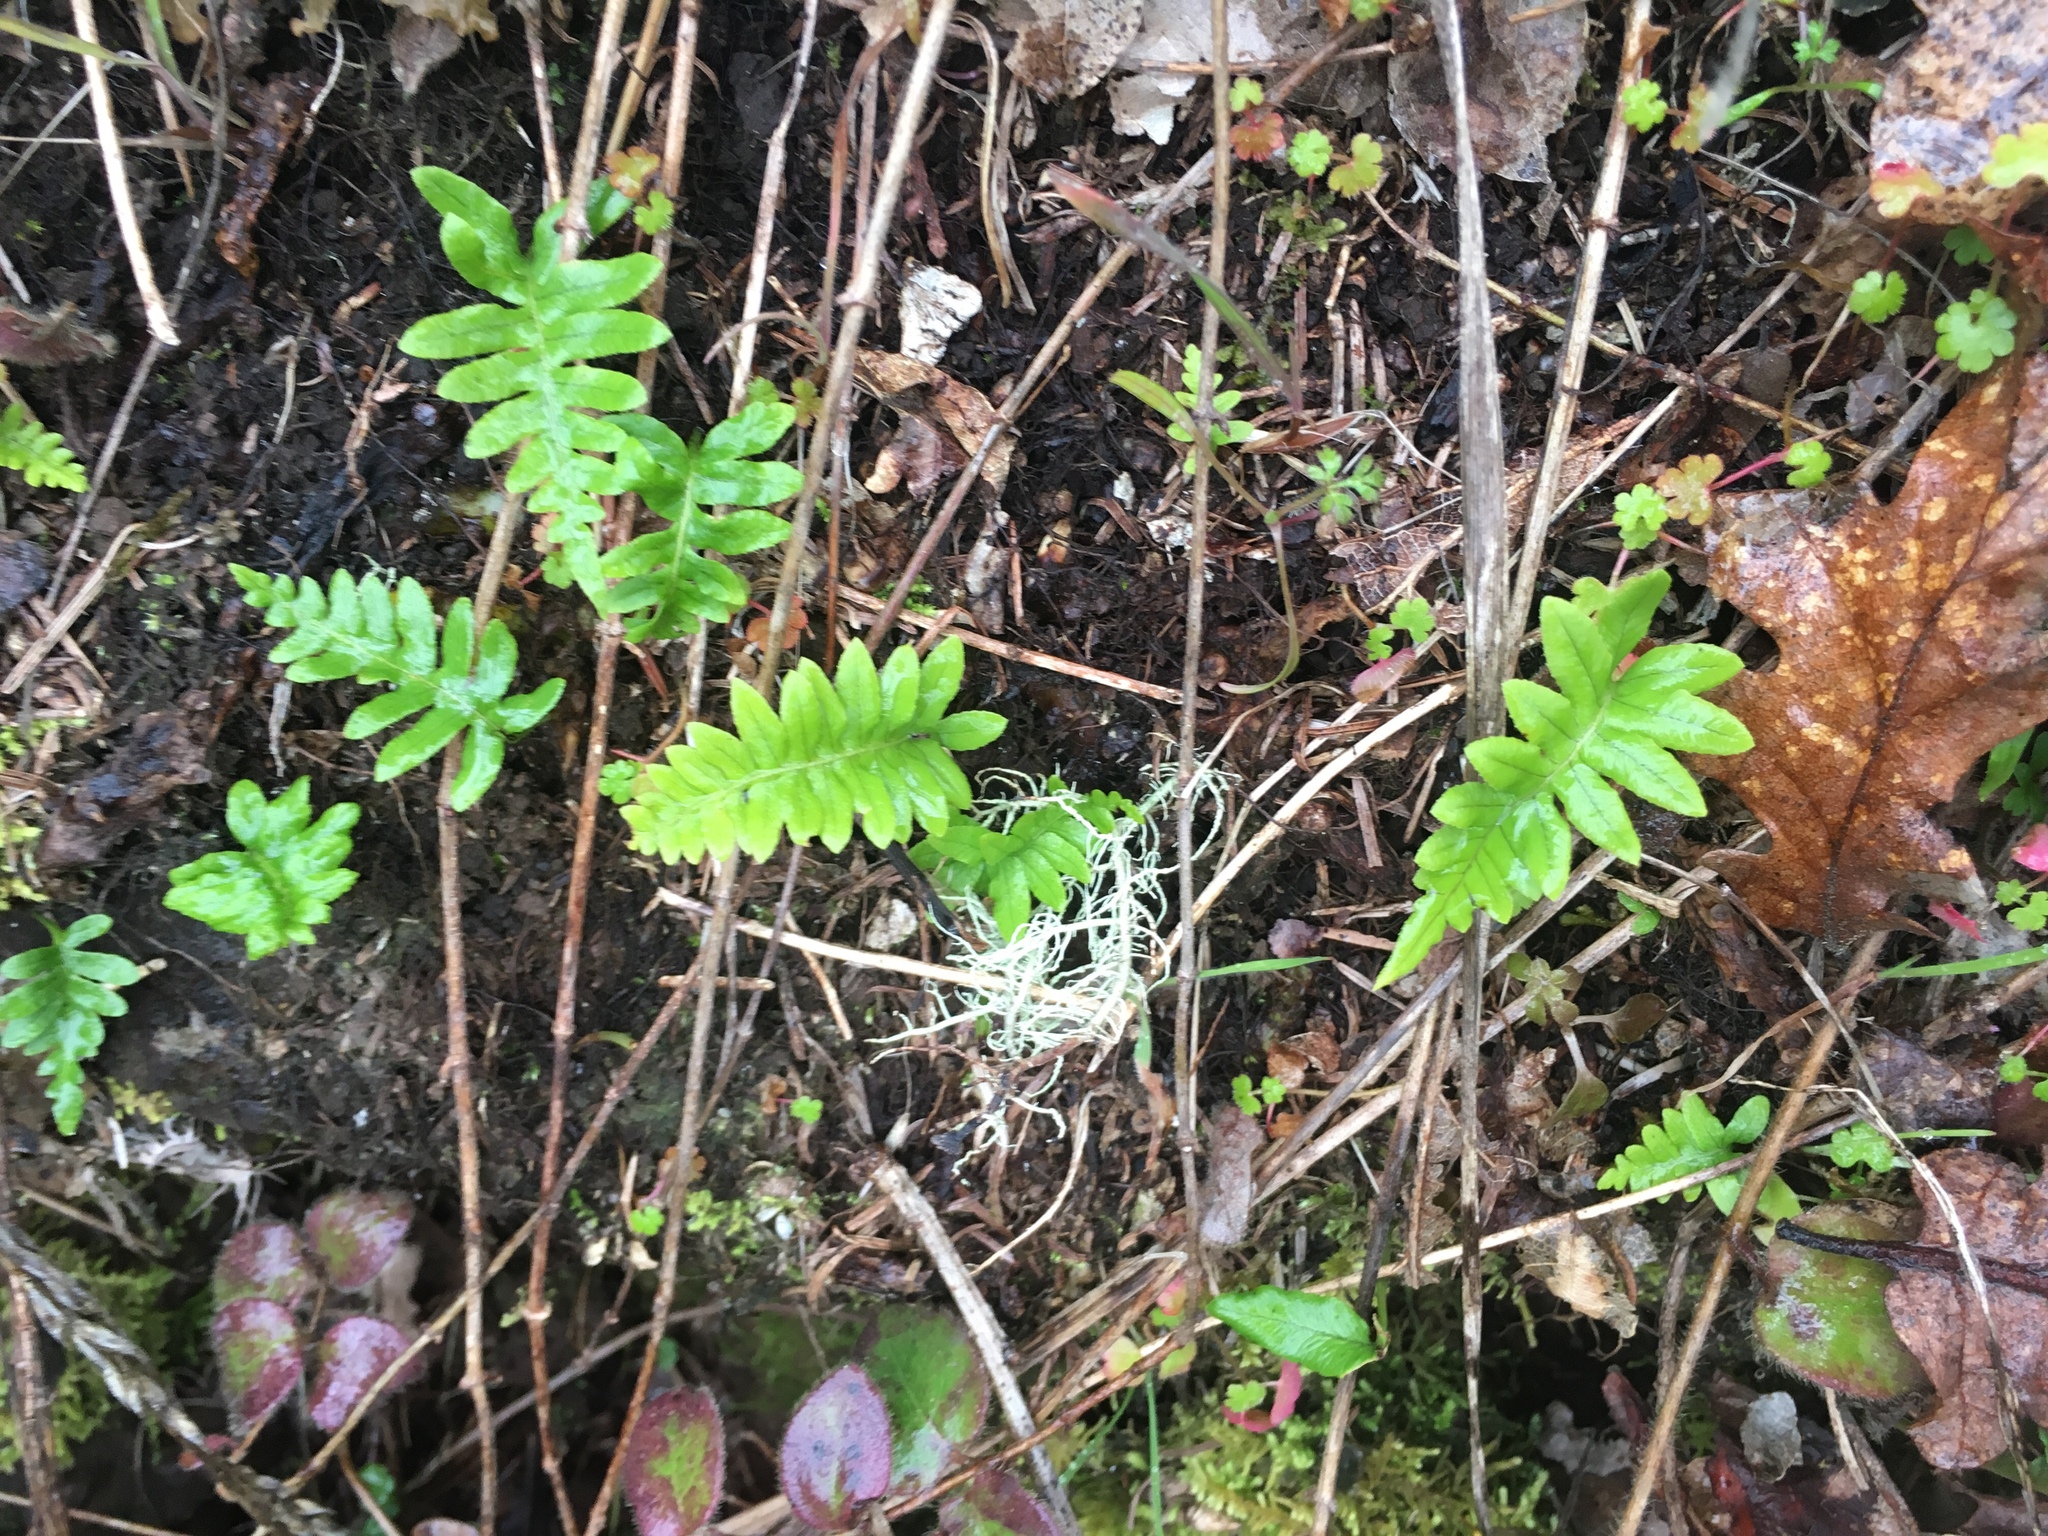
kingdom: Plantae
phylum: Tracheophyta
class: Polypodiopsida
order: Polypodiales
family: Polypodiaceae
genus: Polypodium
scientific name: Polypodium glycyrrhiza
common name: Licorice fern
